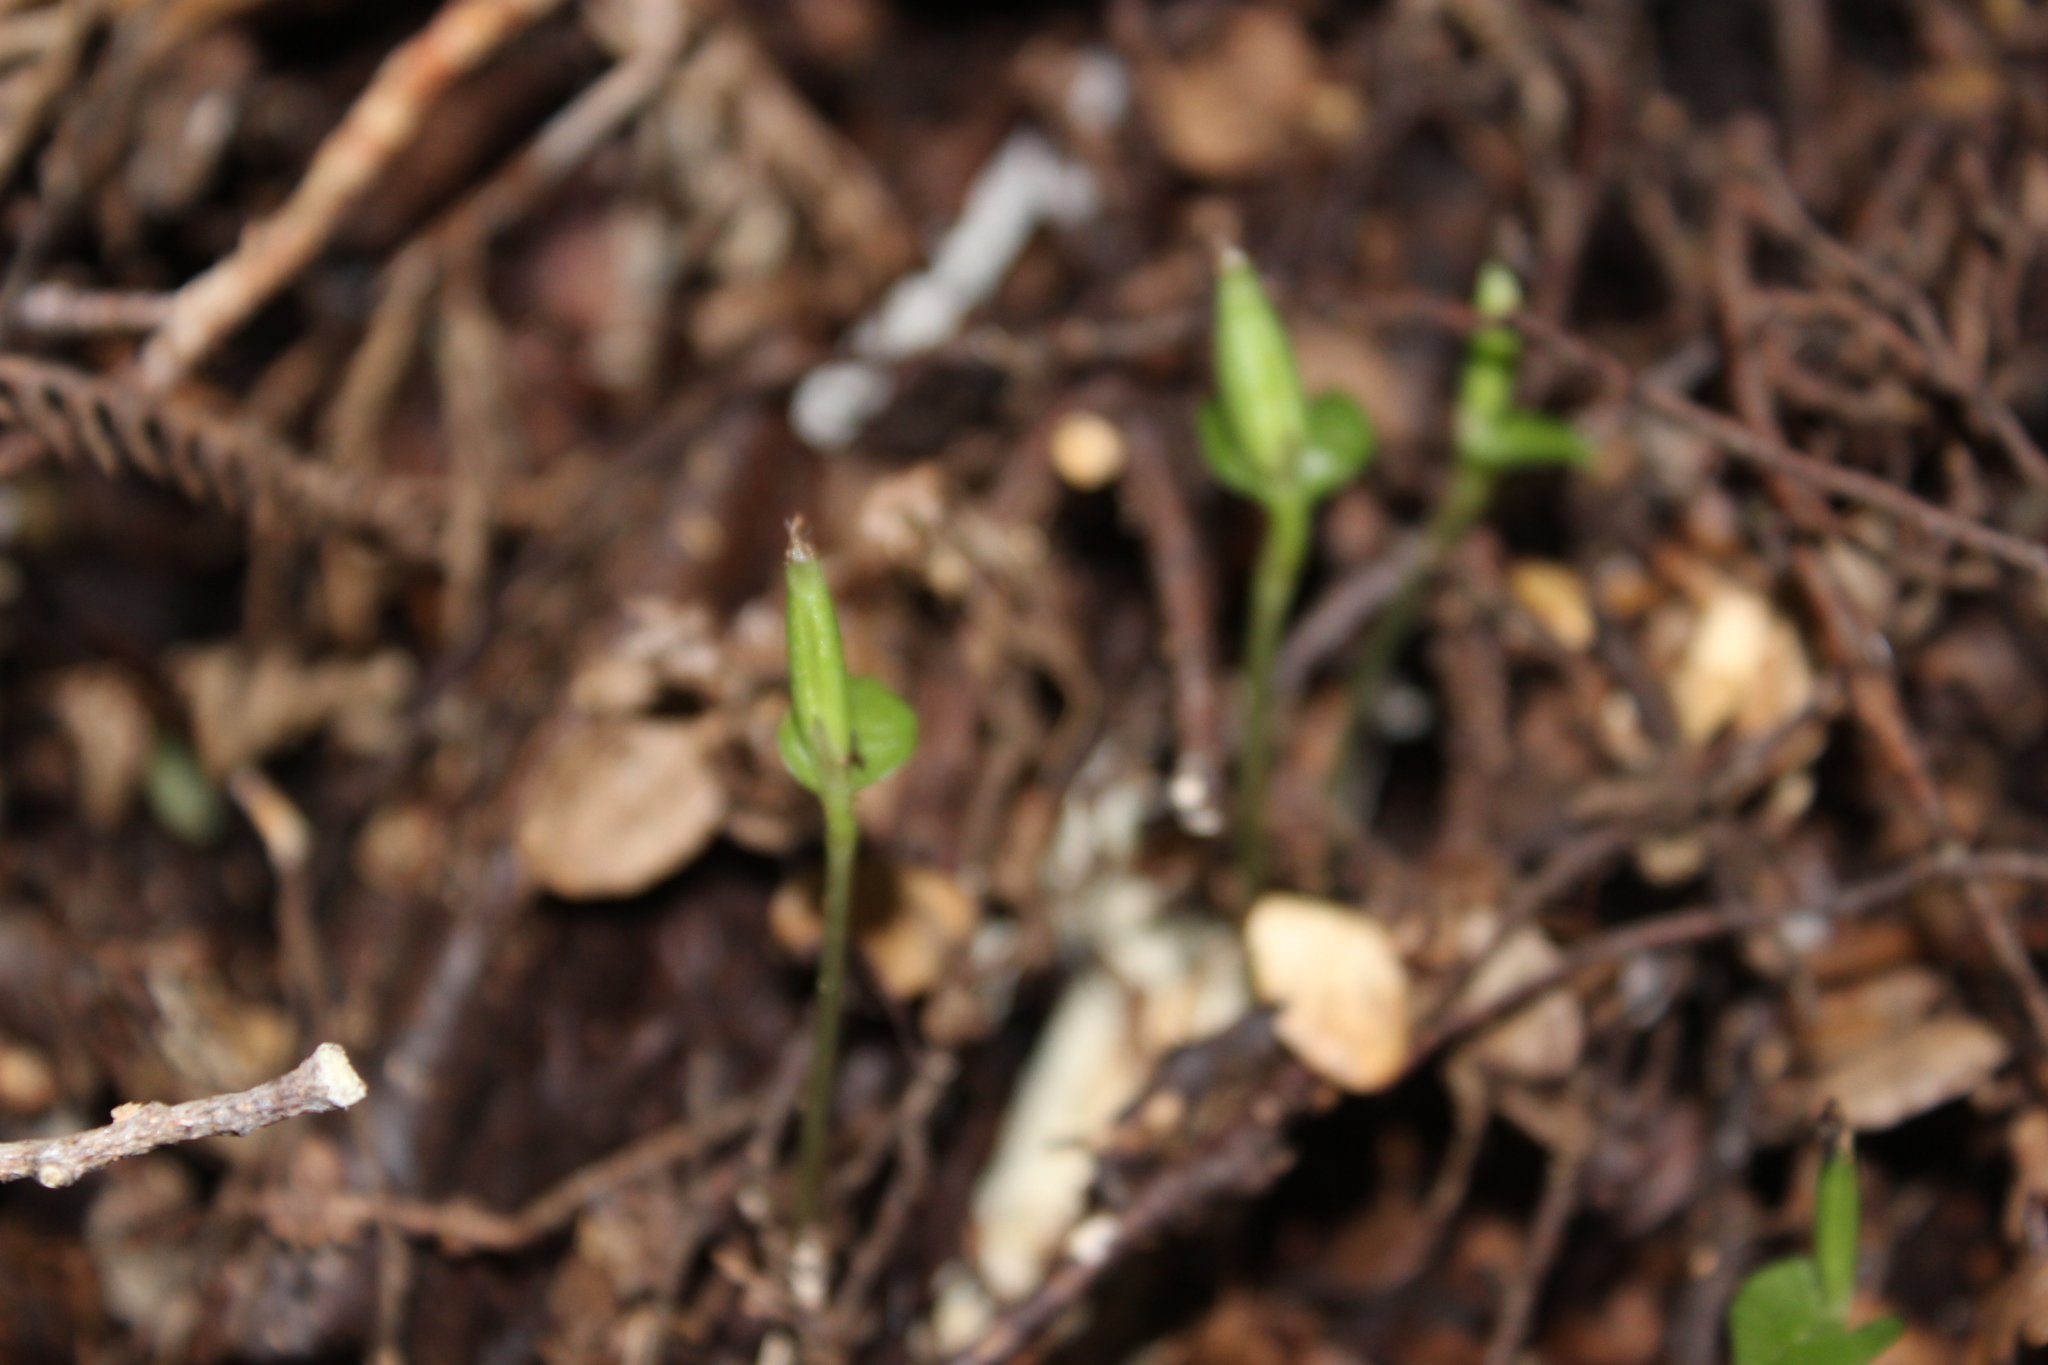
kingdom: Plantae
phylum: Tracheophyta
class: Liliopsida
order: Asparagales
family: Orchidaceae
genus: Corybas
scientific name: Corybas cheesemanii
